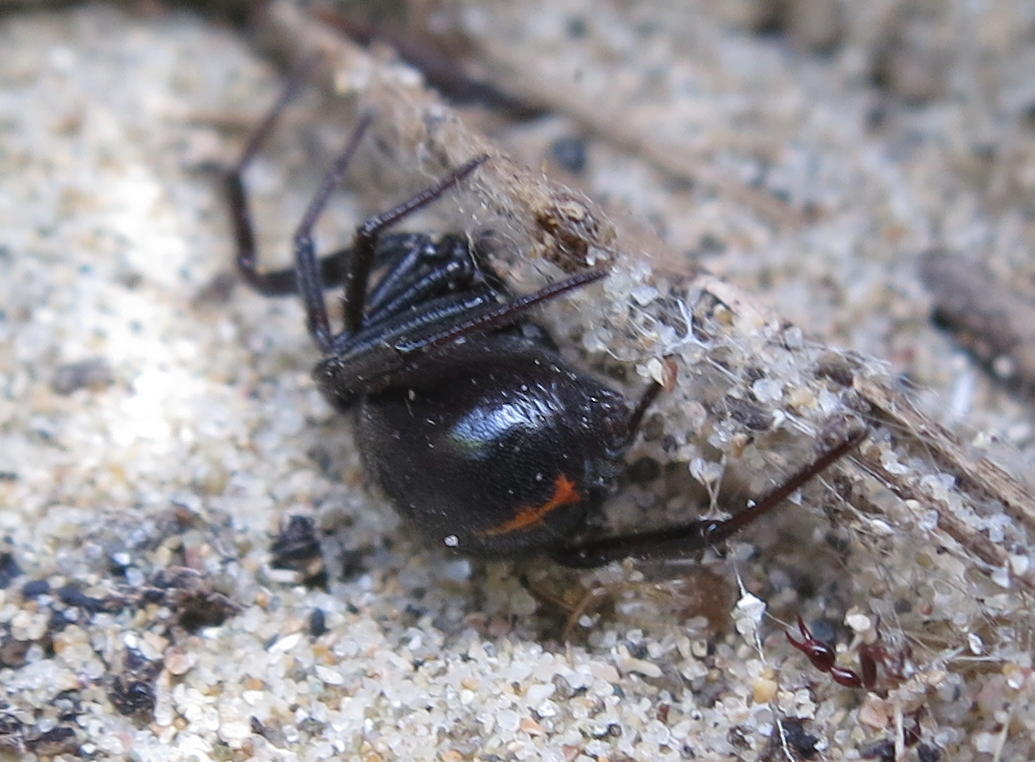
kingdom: Animalia
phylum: Arthropoda
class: Arachnida
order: Araneae
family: Theridiidae
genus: Steatoda
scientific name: Steatoda capensis
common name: Cobweb weaver
